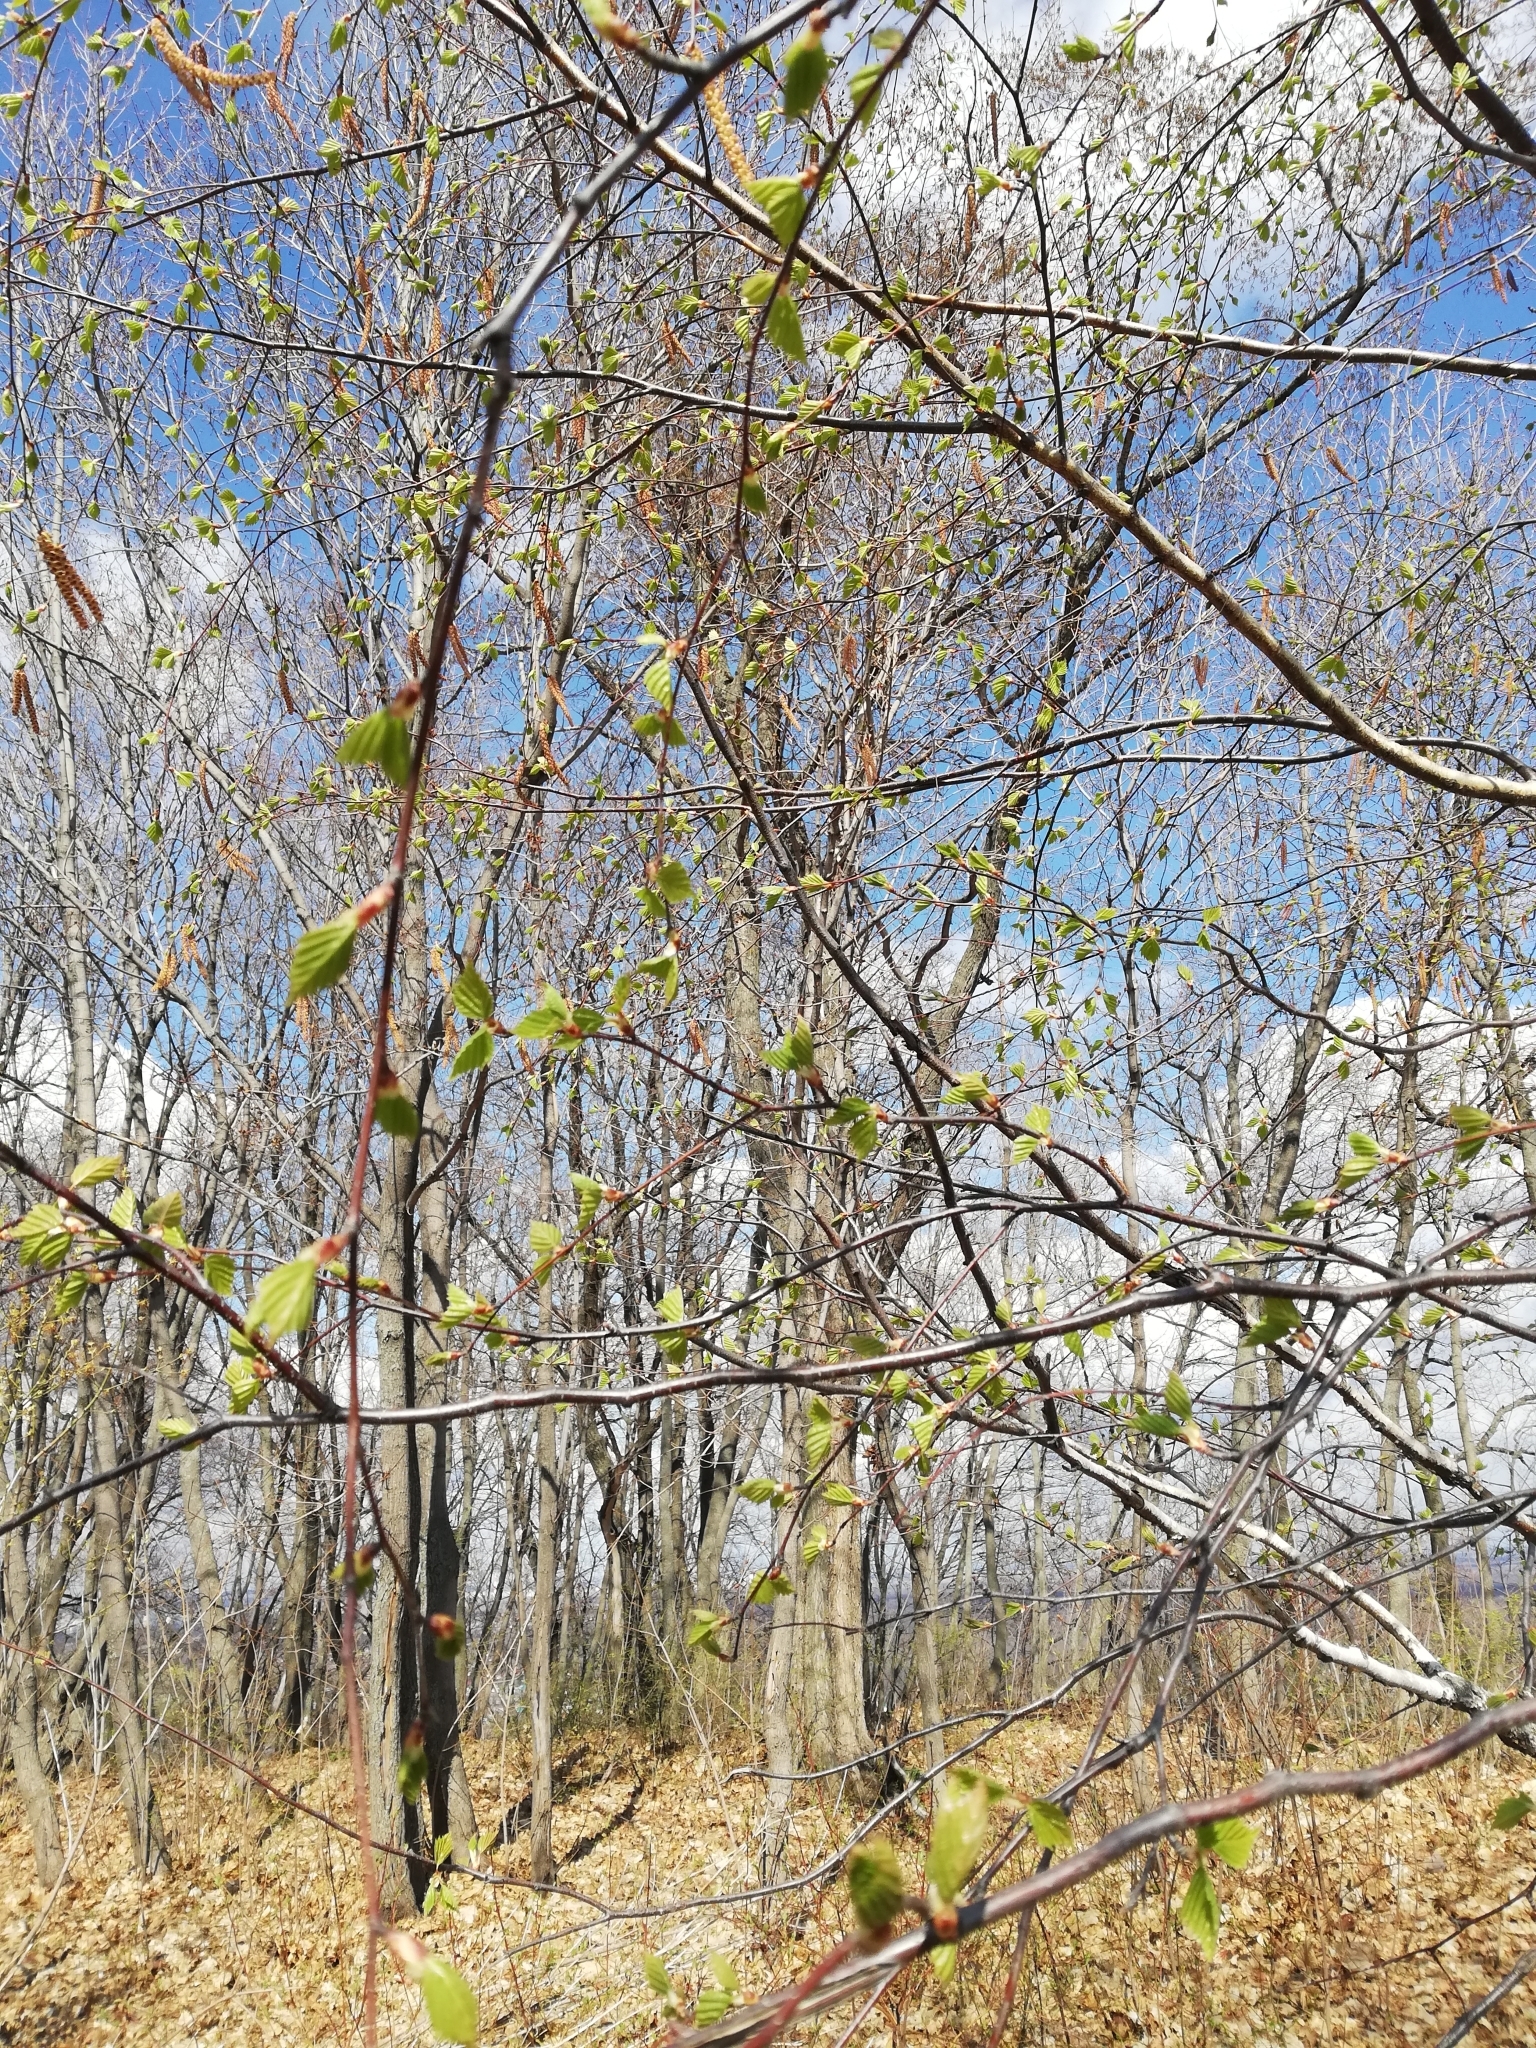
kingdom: Plantae
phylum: Tracheophyta
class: Magnoliopsida
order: Fagales
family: Betulaceae
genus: Betula
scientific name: Betula pendula
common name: Silver birch
